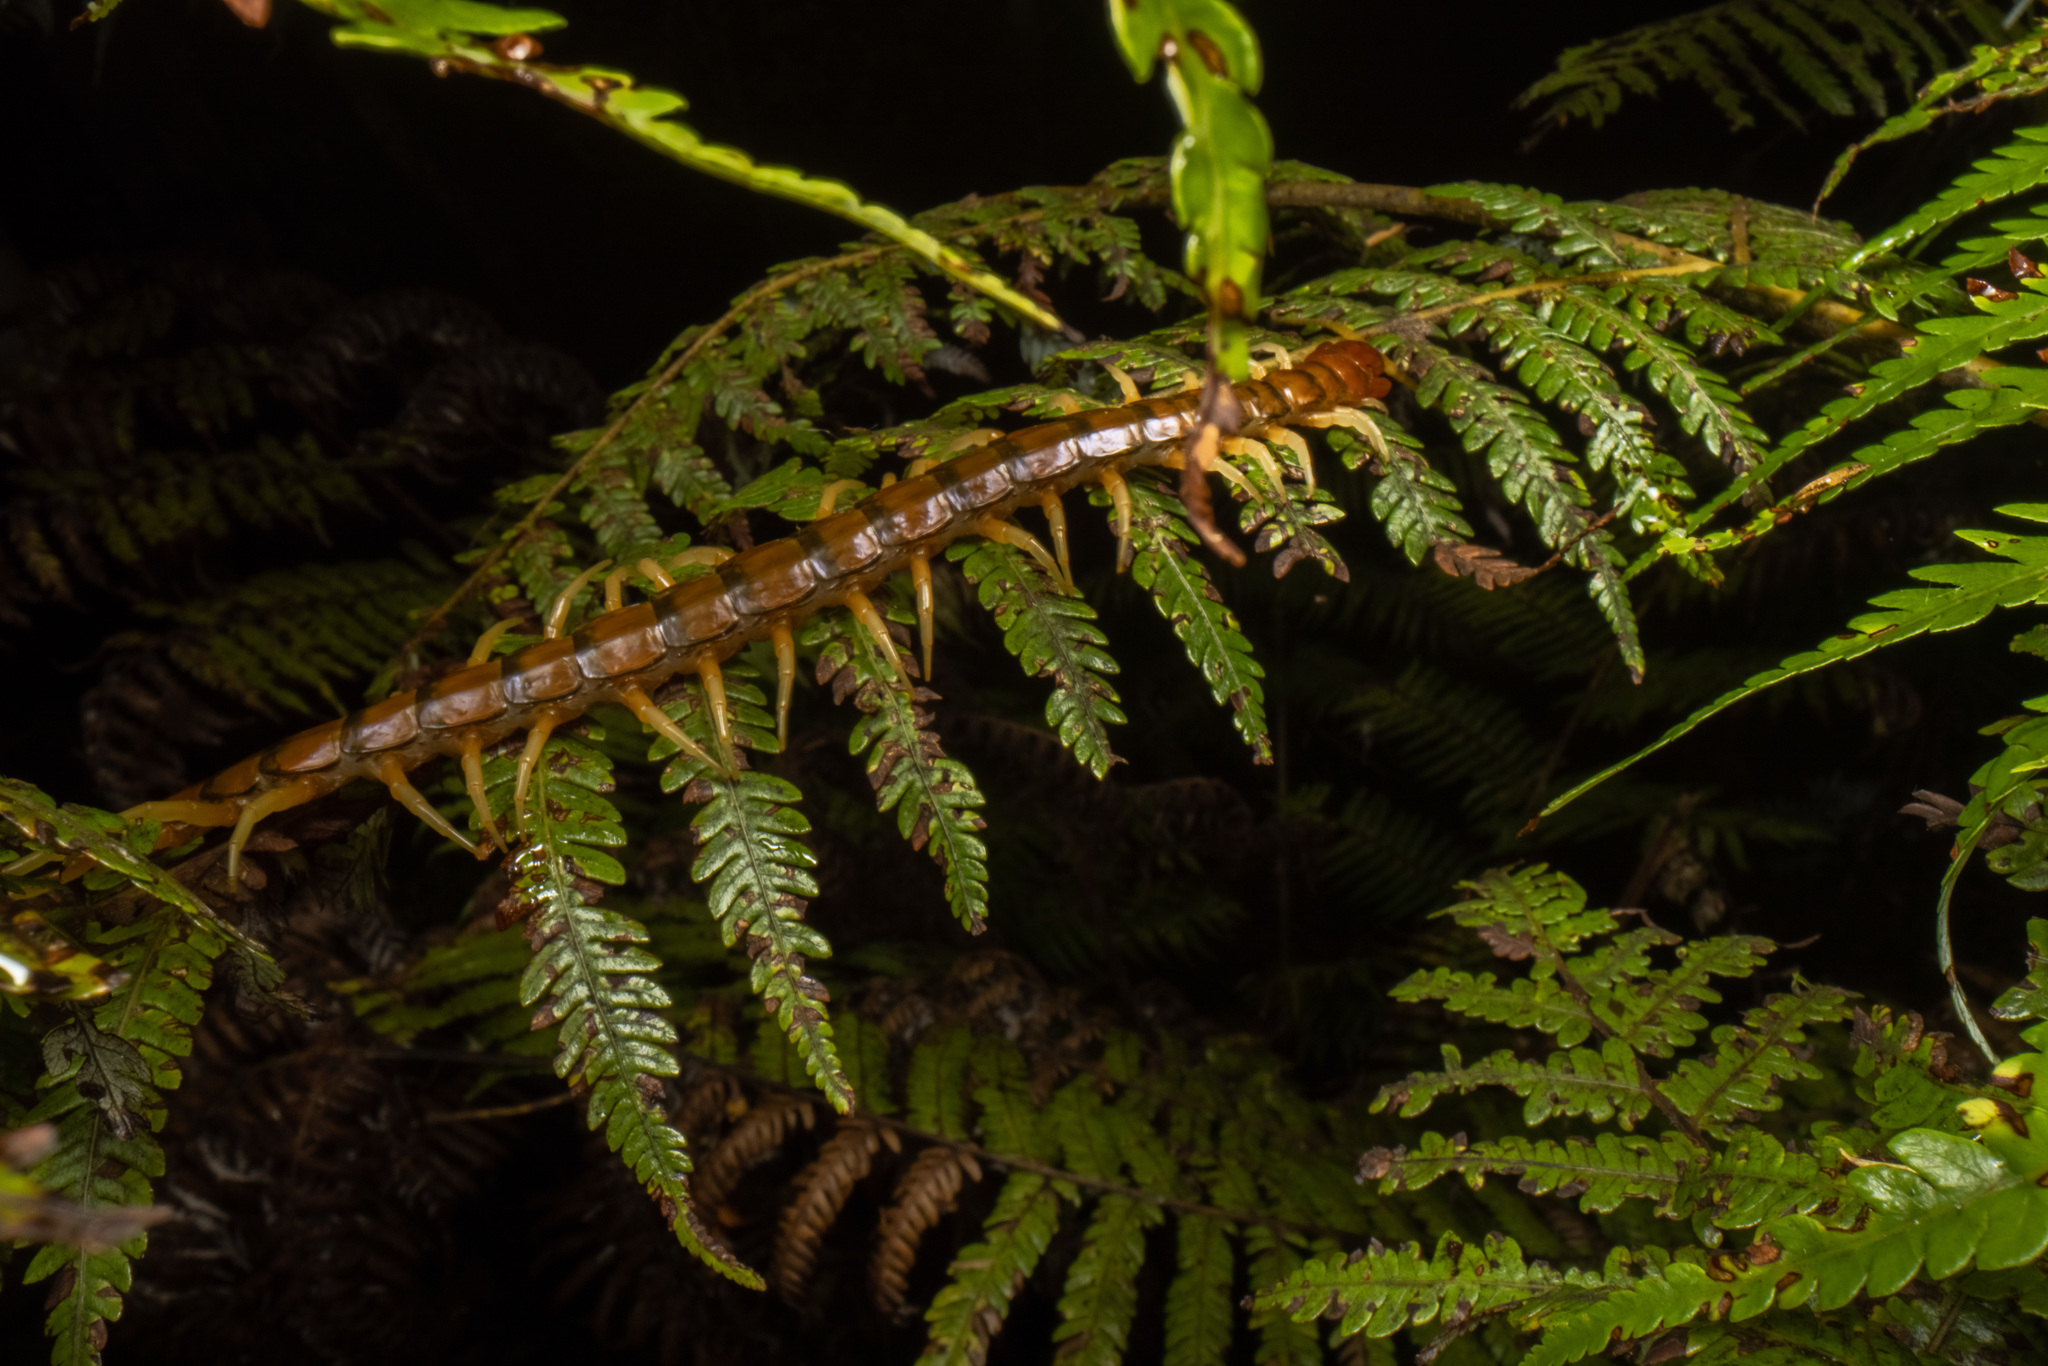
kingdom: Animalia
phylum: Arthropoda
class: Chilopoda
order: Scolopendromorpha
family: Scolopendridae
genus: Cormocephalus
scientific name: Cormocephalus rubriceps
